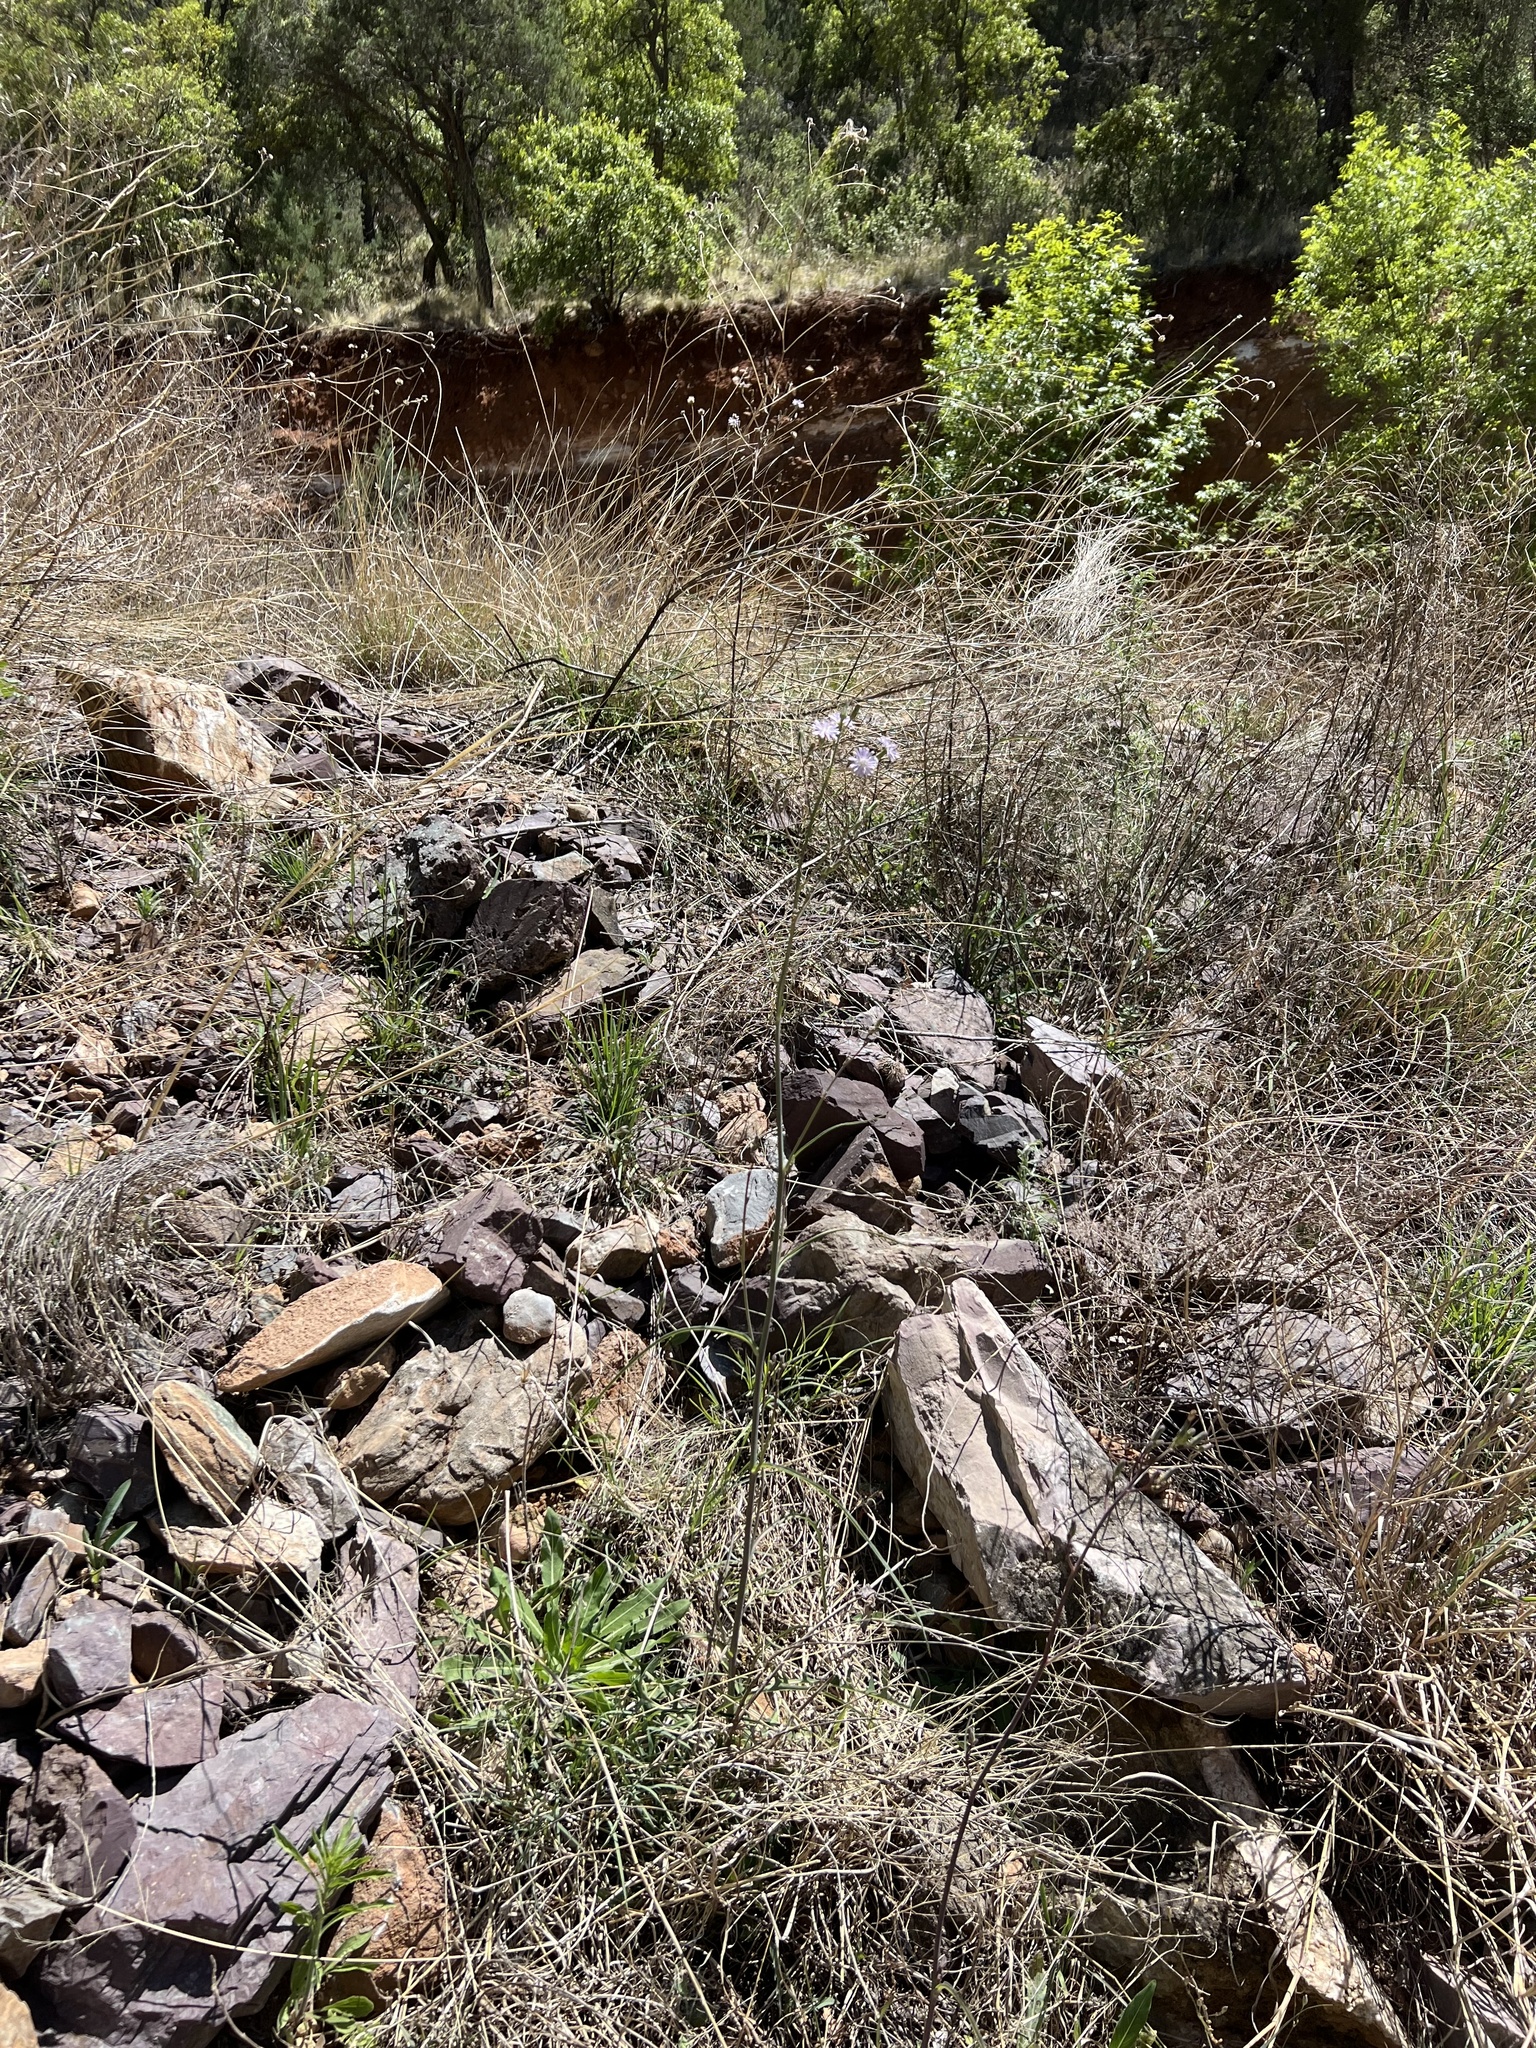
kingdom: Plantae
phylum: Tracheophyta
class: Magnoliopsida
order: Asterales
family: Asteraceae
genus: Lactuca
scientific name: Lactuca graminifolia
